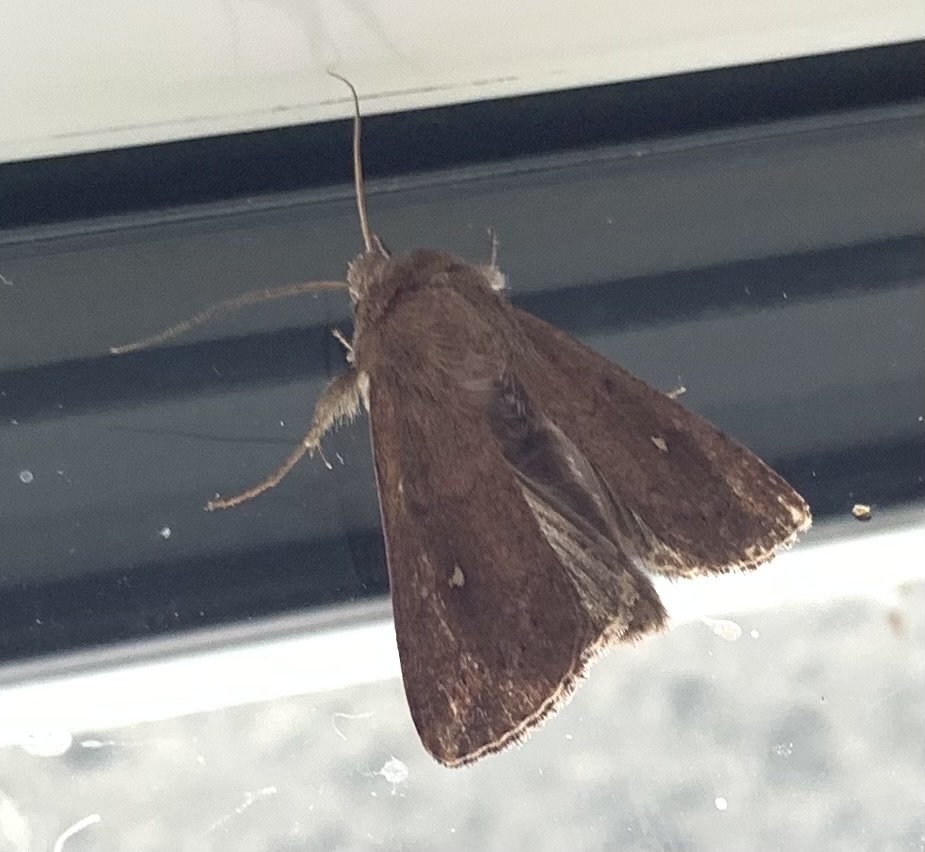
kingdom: Animalia
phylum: Arthropoda
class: Insecta
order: Lepidoptera
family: Noctuidae
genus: Mythimna
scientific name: Mythimna albipuncta
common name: White-point
